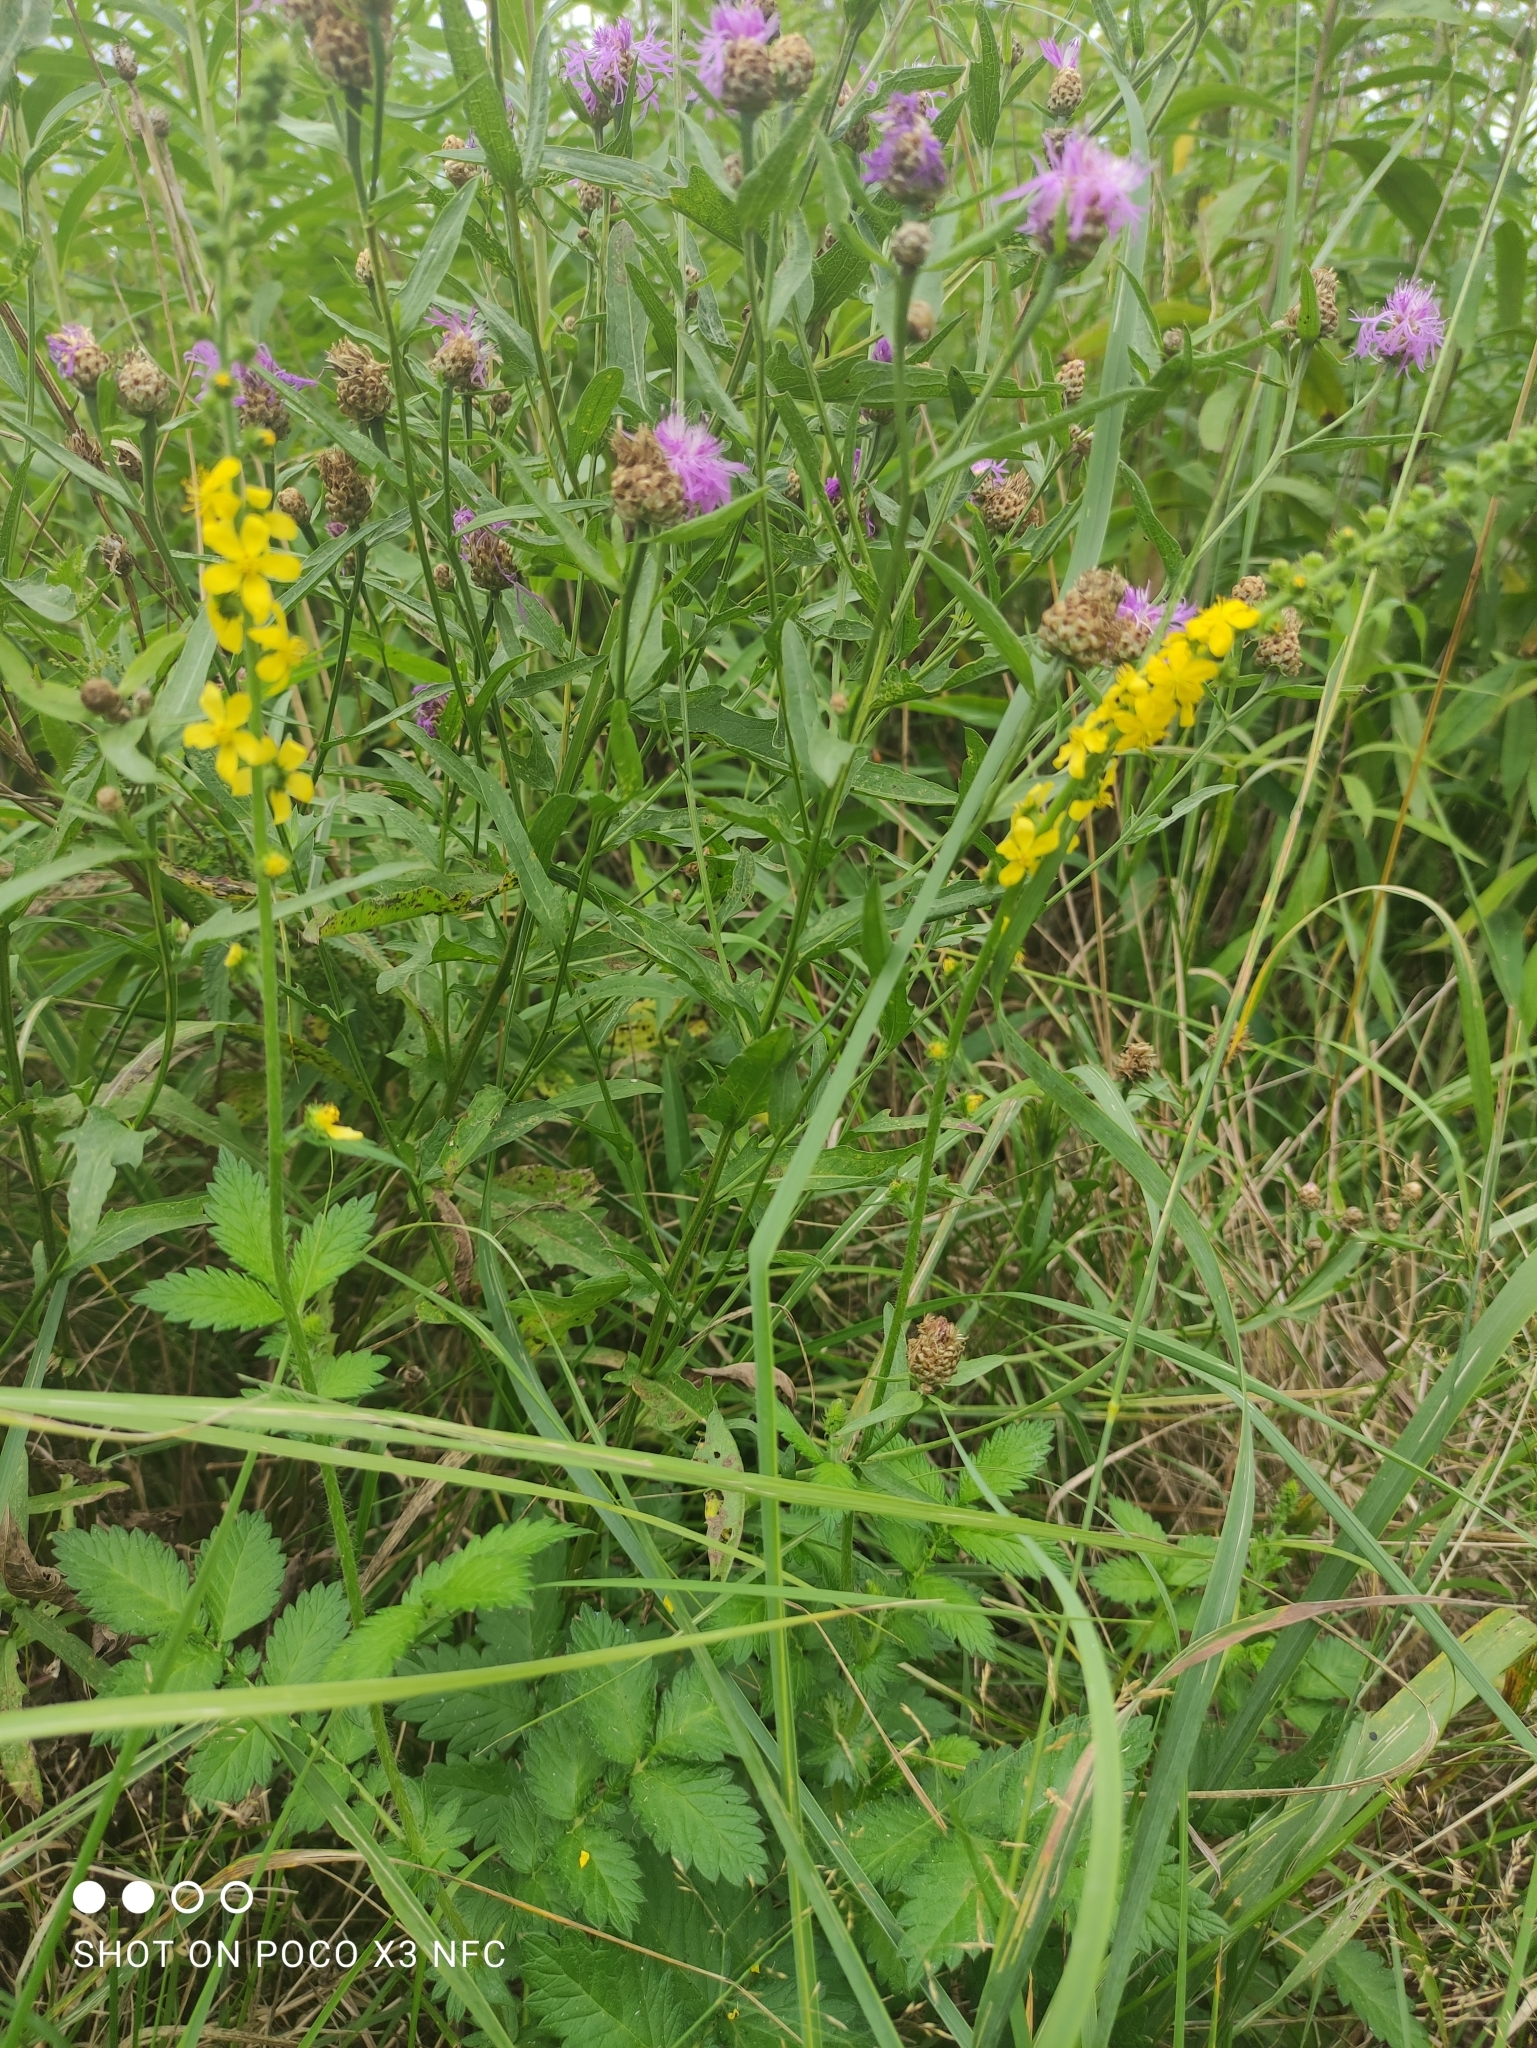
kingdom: Plantae
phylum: Tracheophyta
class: Magnoliopsida
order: Rosales
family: Rosaceae
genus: Agrimonia
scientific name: Agrimonia eupatoria
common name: Agrimony
